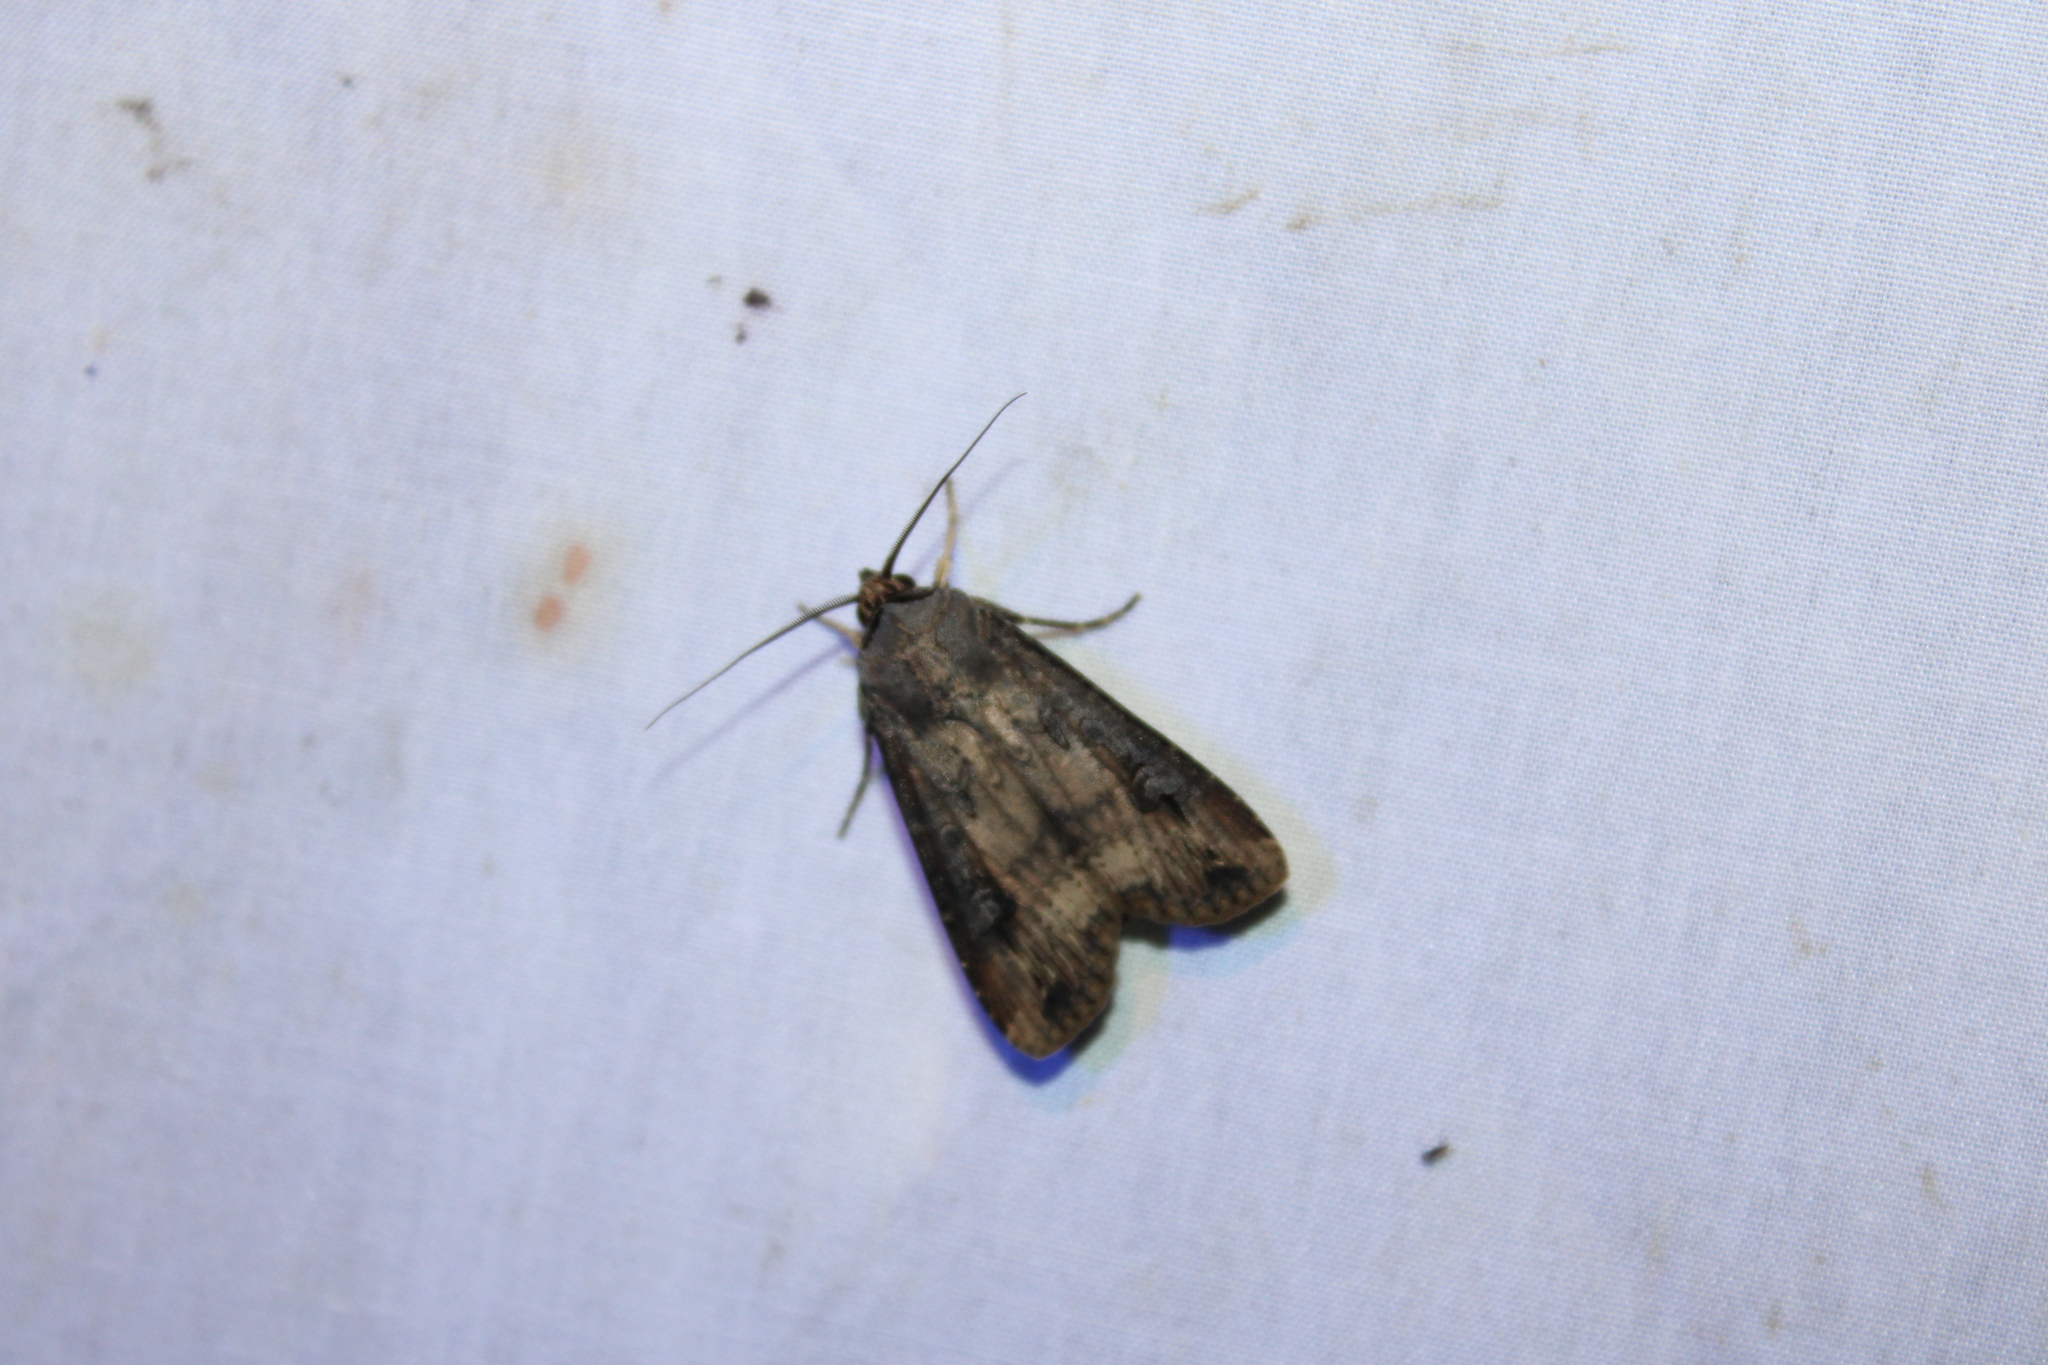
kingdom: Animalia
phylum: Arthropoda
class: Insecta
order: Lepidoptera
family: Noctuidae
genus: Agrotis
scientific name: Agrotis ipsilon
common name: Dark sword-grass
